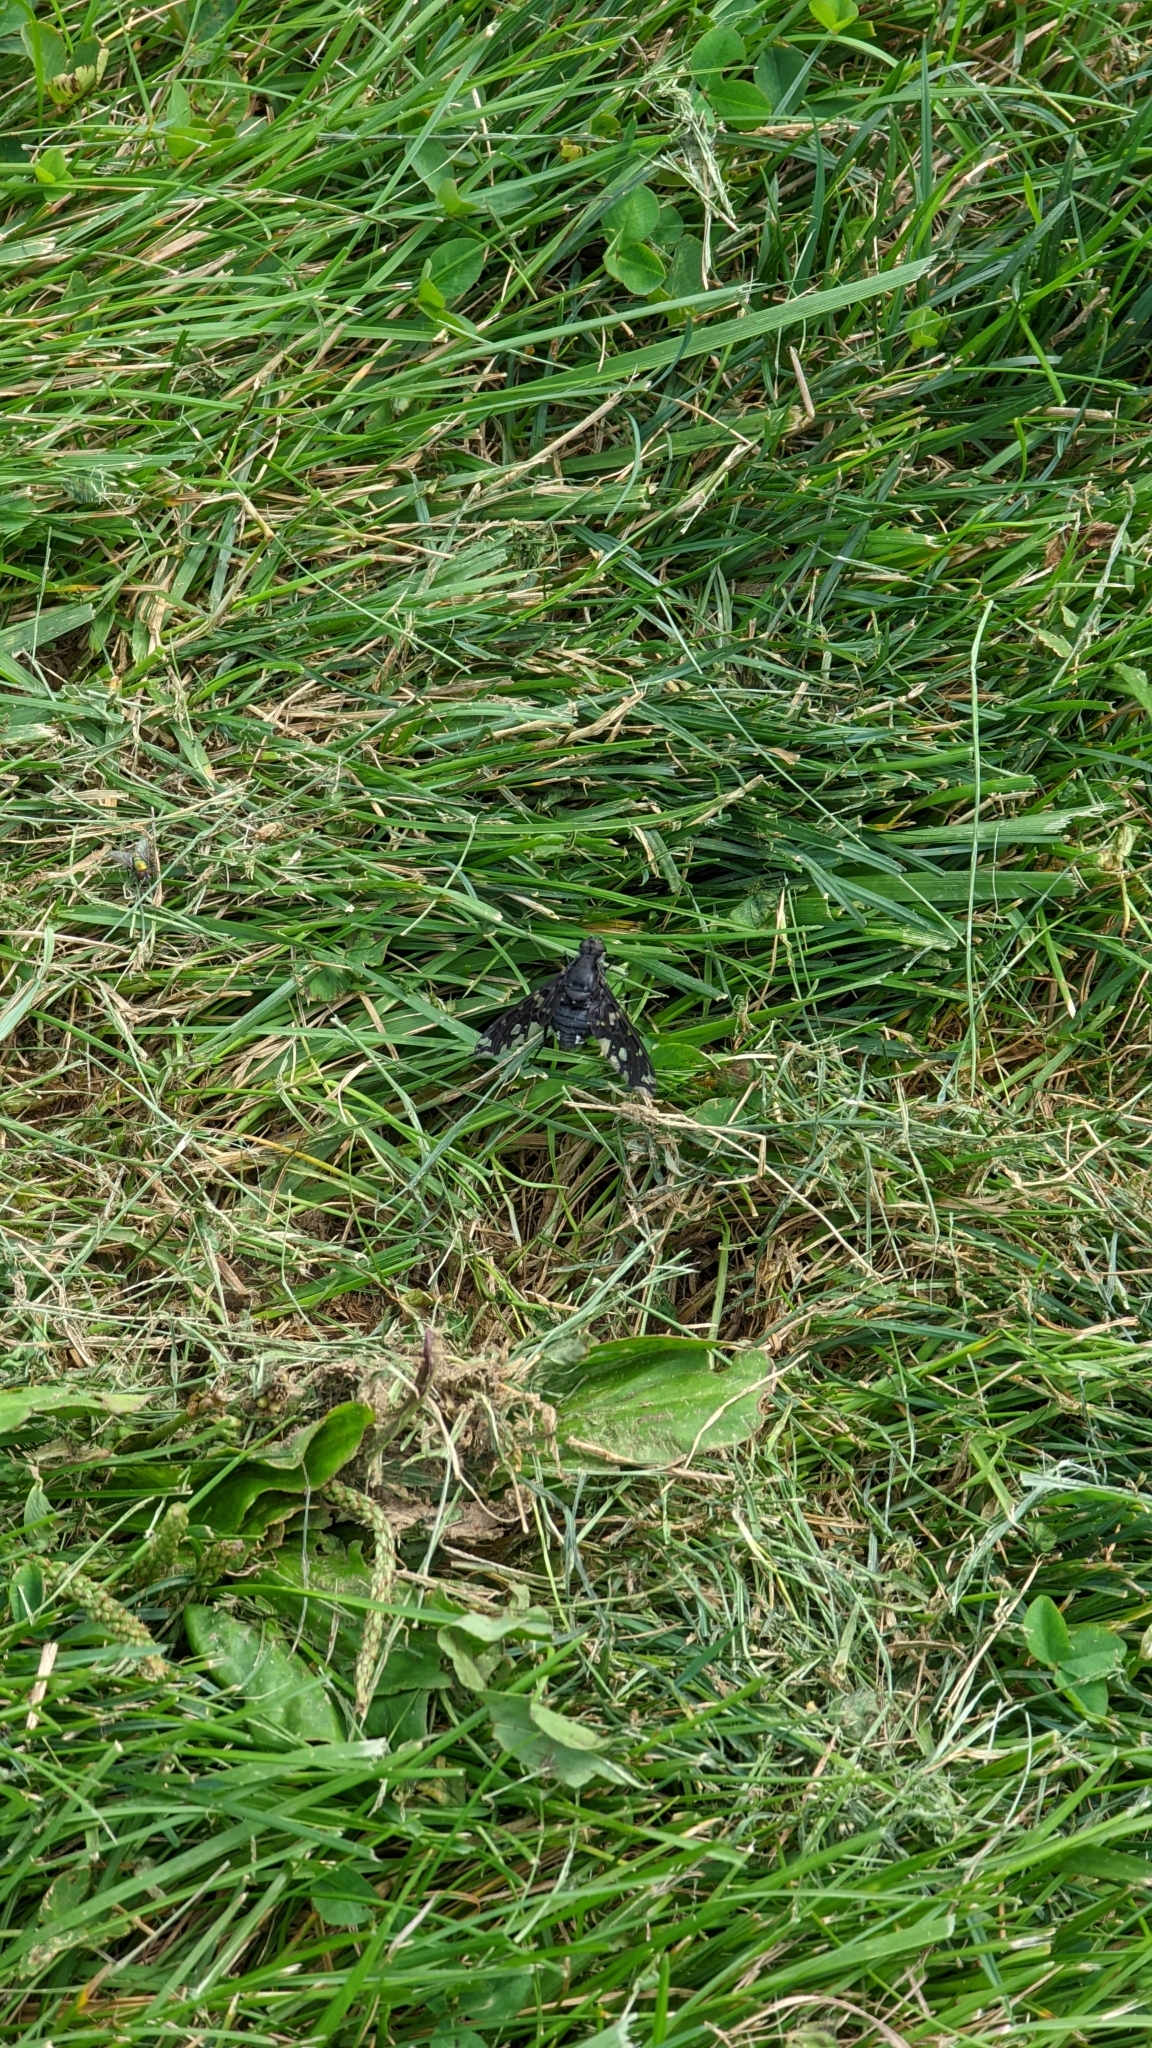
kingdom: Animalia
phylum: Arthropoda
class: Insecta
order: Diptera
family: Bombyliidae
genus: Xenox
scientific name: Xenox tigrinus
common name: Tiger bee fly
